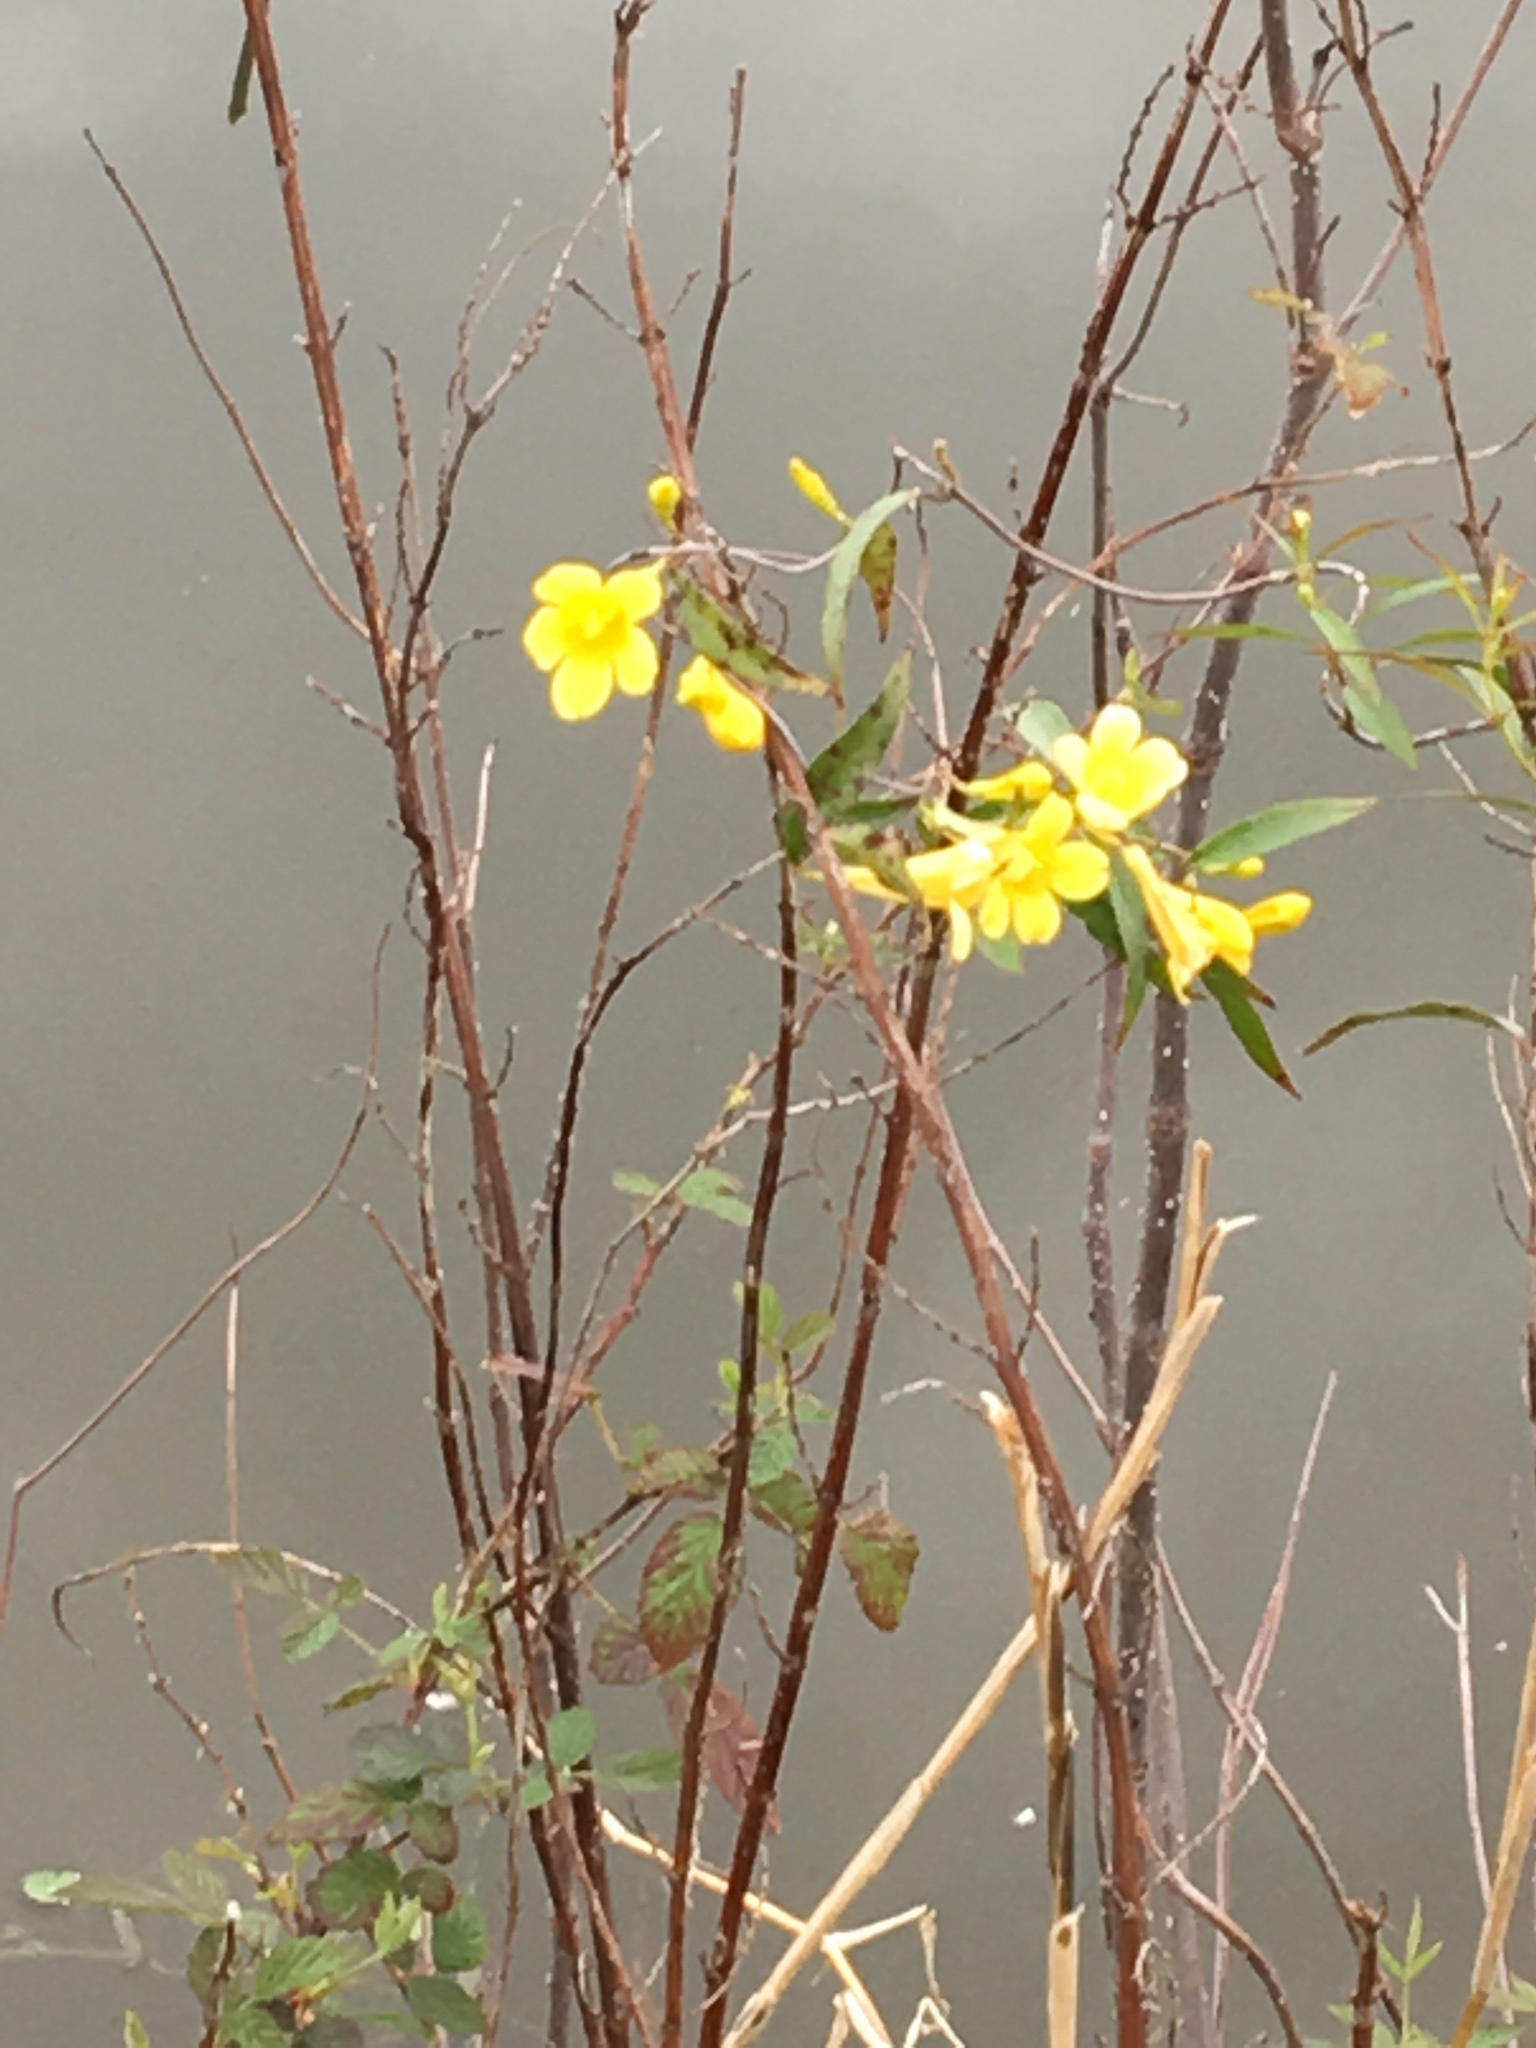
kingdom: Plantae
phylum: Tracheophyta
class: Magnoliopsida
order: Gentianales
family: Gelsemiaceae
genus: Gelsemium
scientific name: Gelsemium sempervirens
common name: Carolina-jasmine
